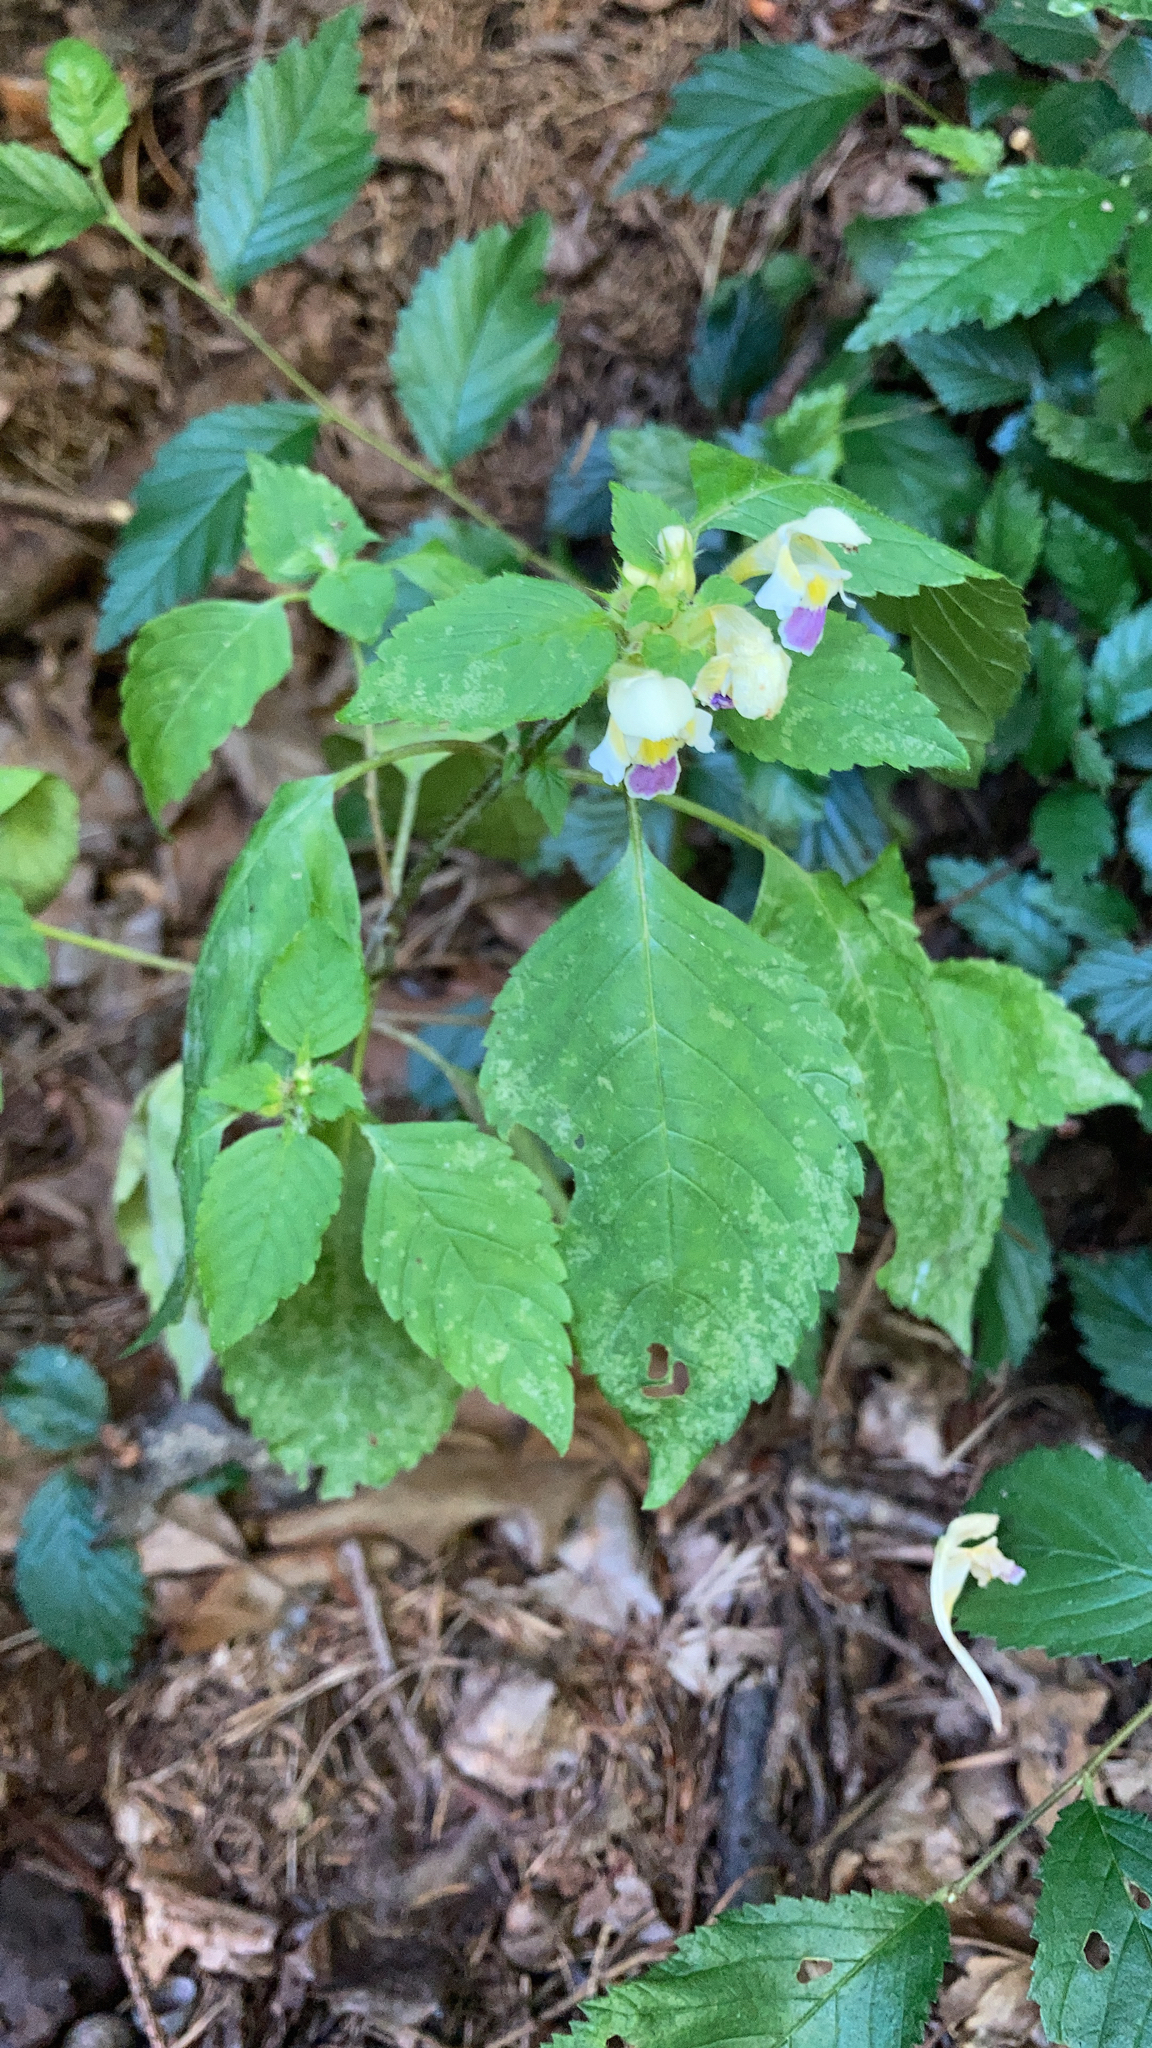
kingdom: Plantae
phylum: Tracheophyta
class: Magnoliopsida
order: Lamiales
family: Lamiaceae
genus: Galeopsis
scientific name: Galeopsis speciosa
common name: Large-flowered hemp-nettle
